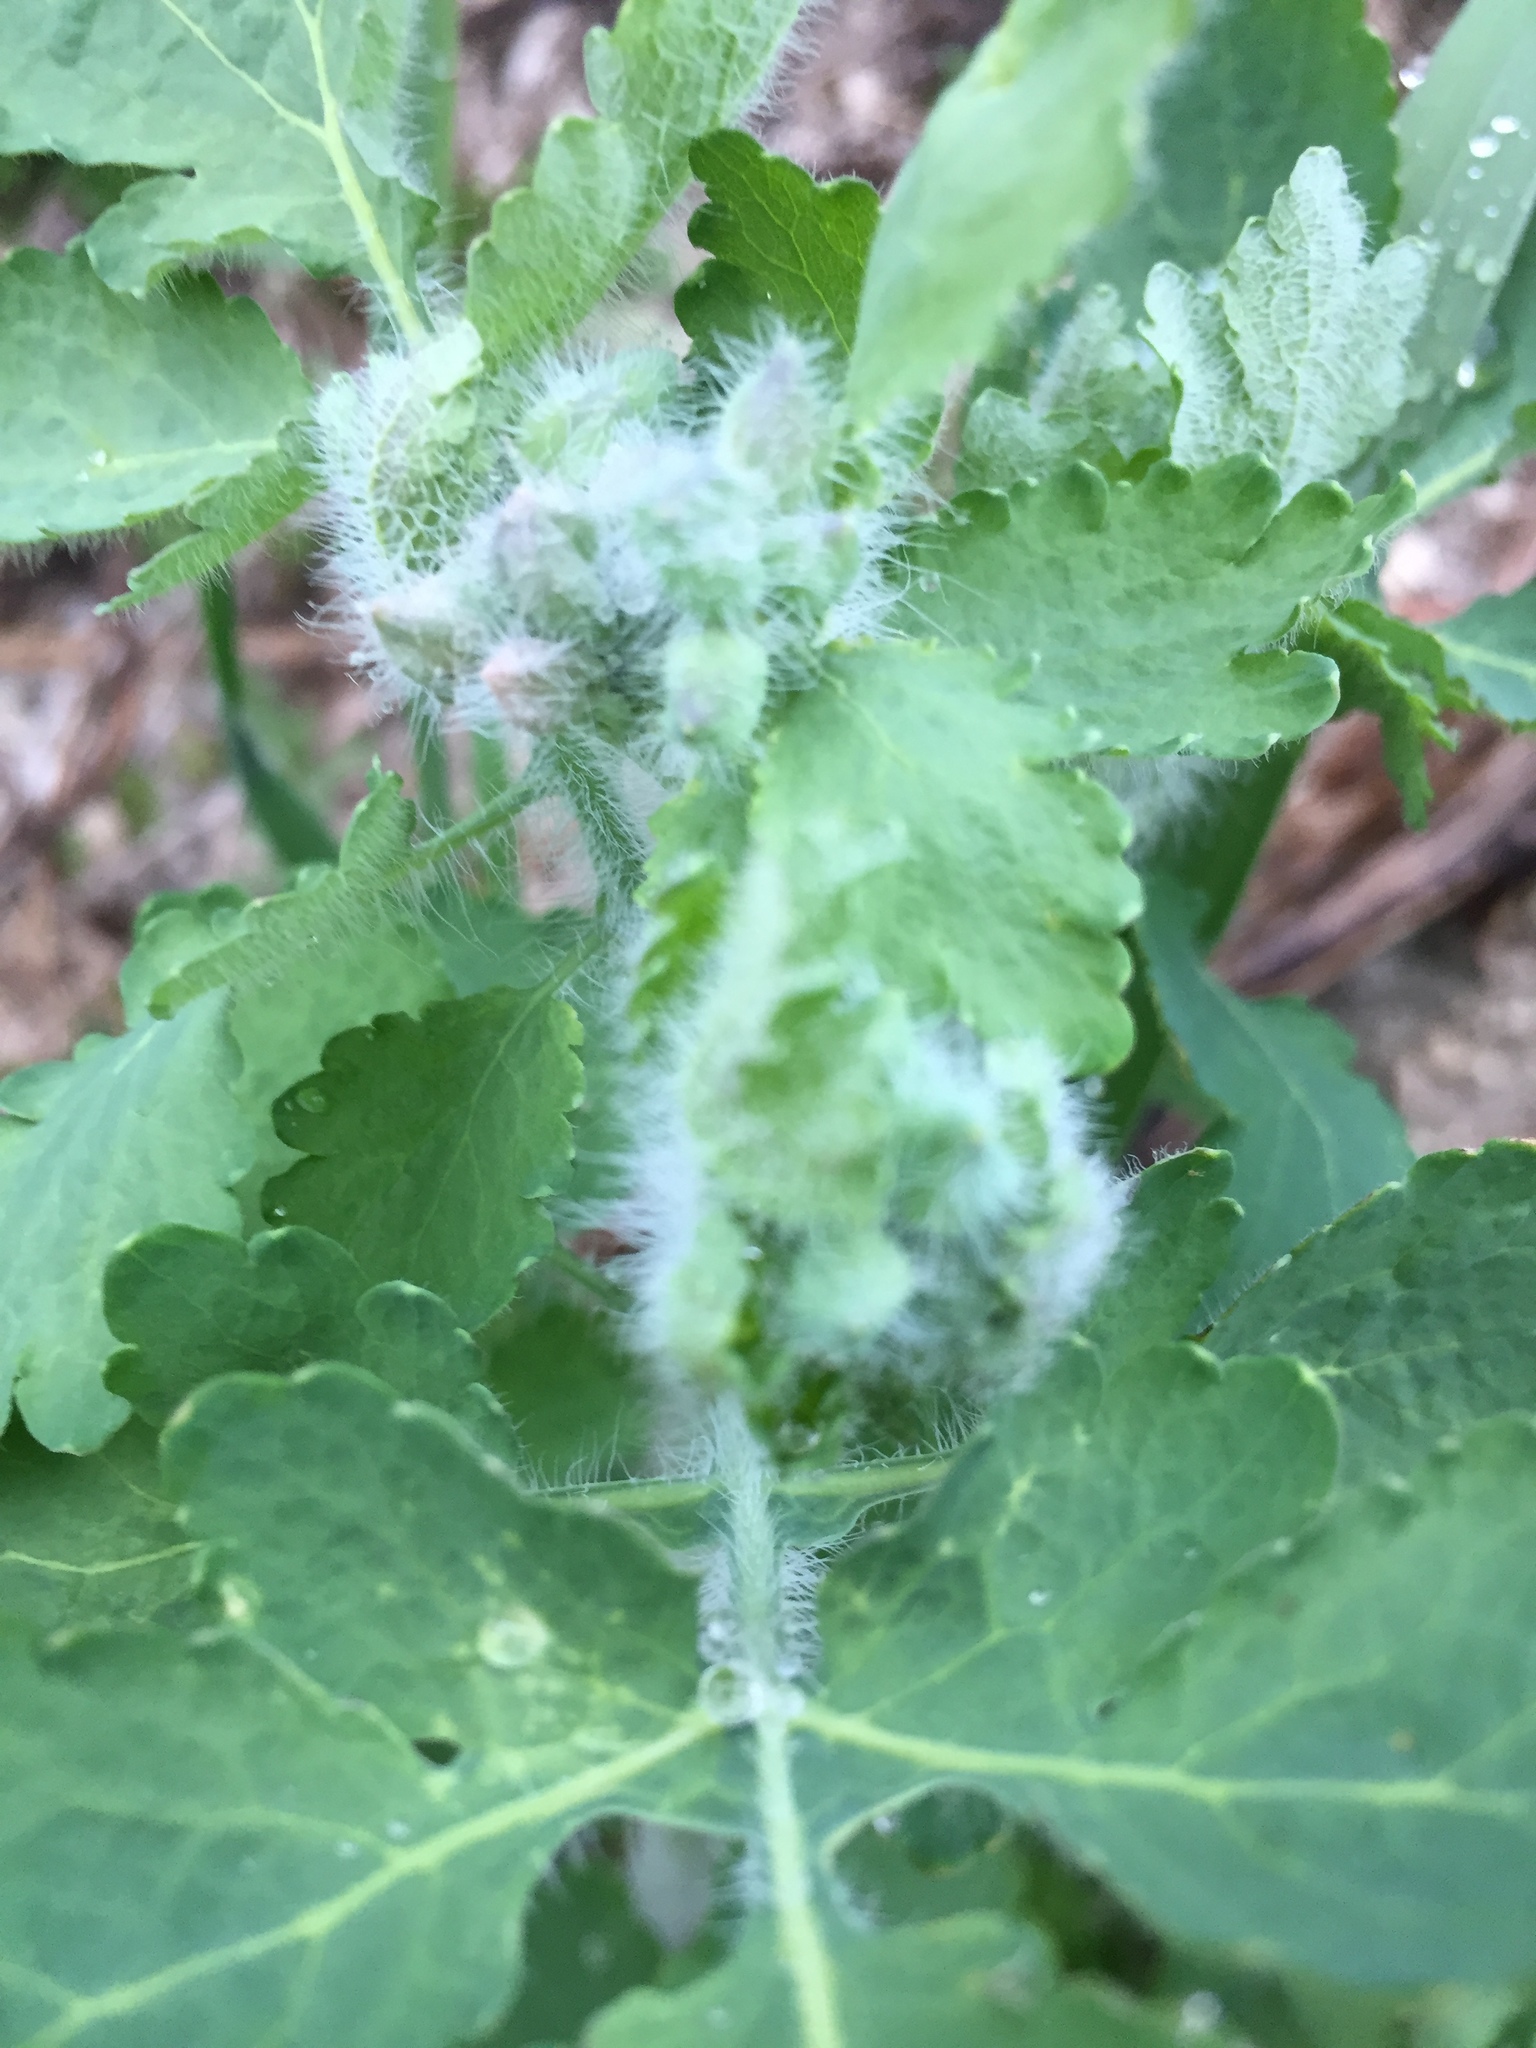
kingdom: Plantae
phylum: Tracheophyta
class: Magnoliopsida
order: Ranunculales
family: Papaveraceae
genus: Chelidonium
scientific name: Chelidonium majus
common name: Greater celandine
